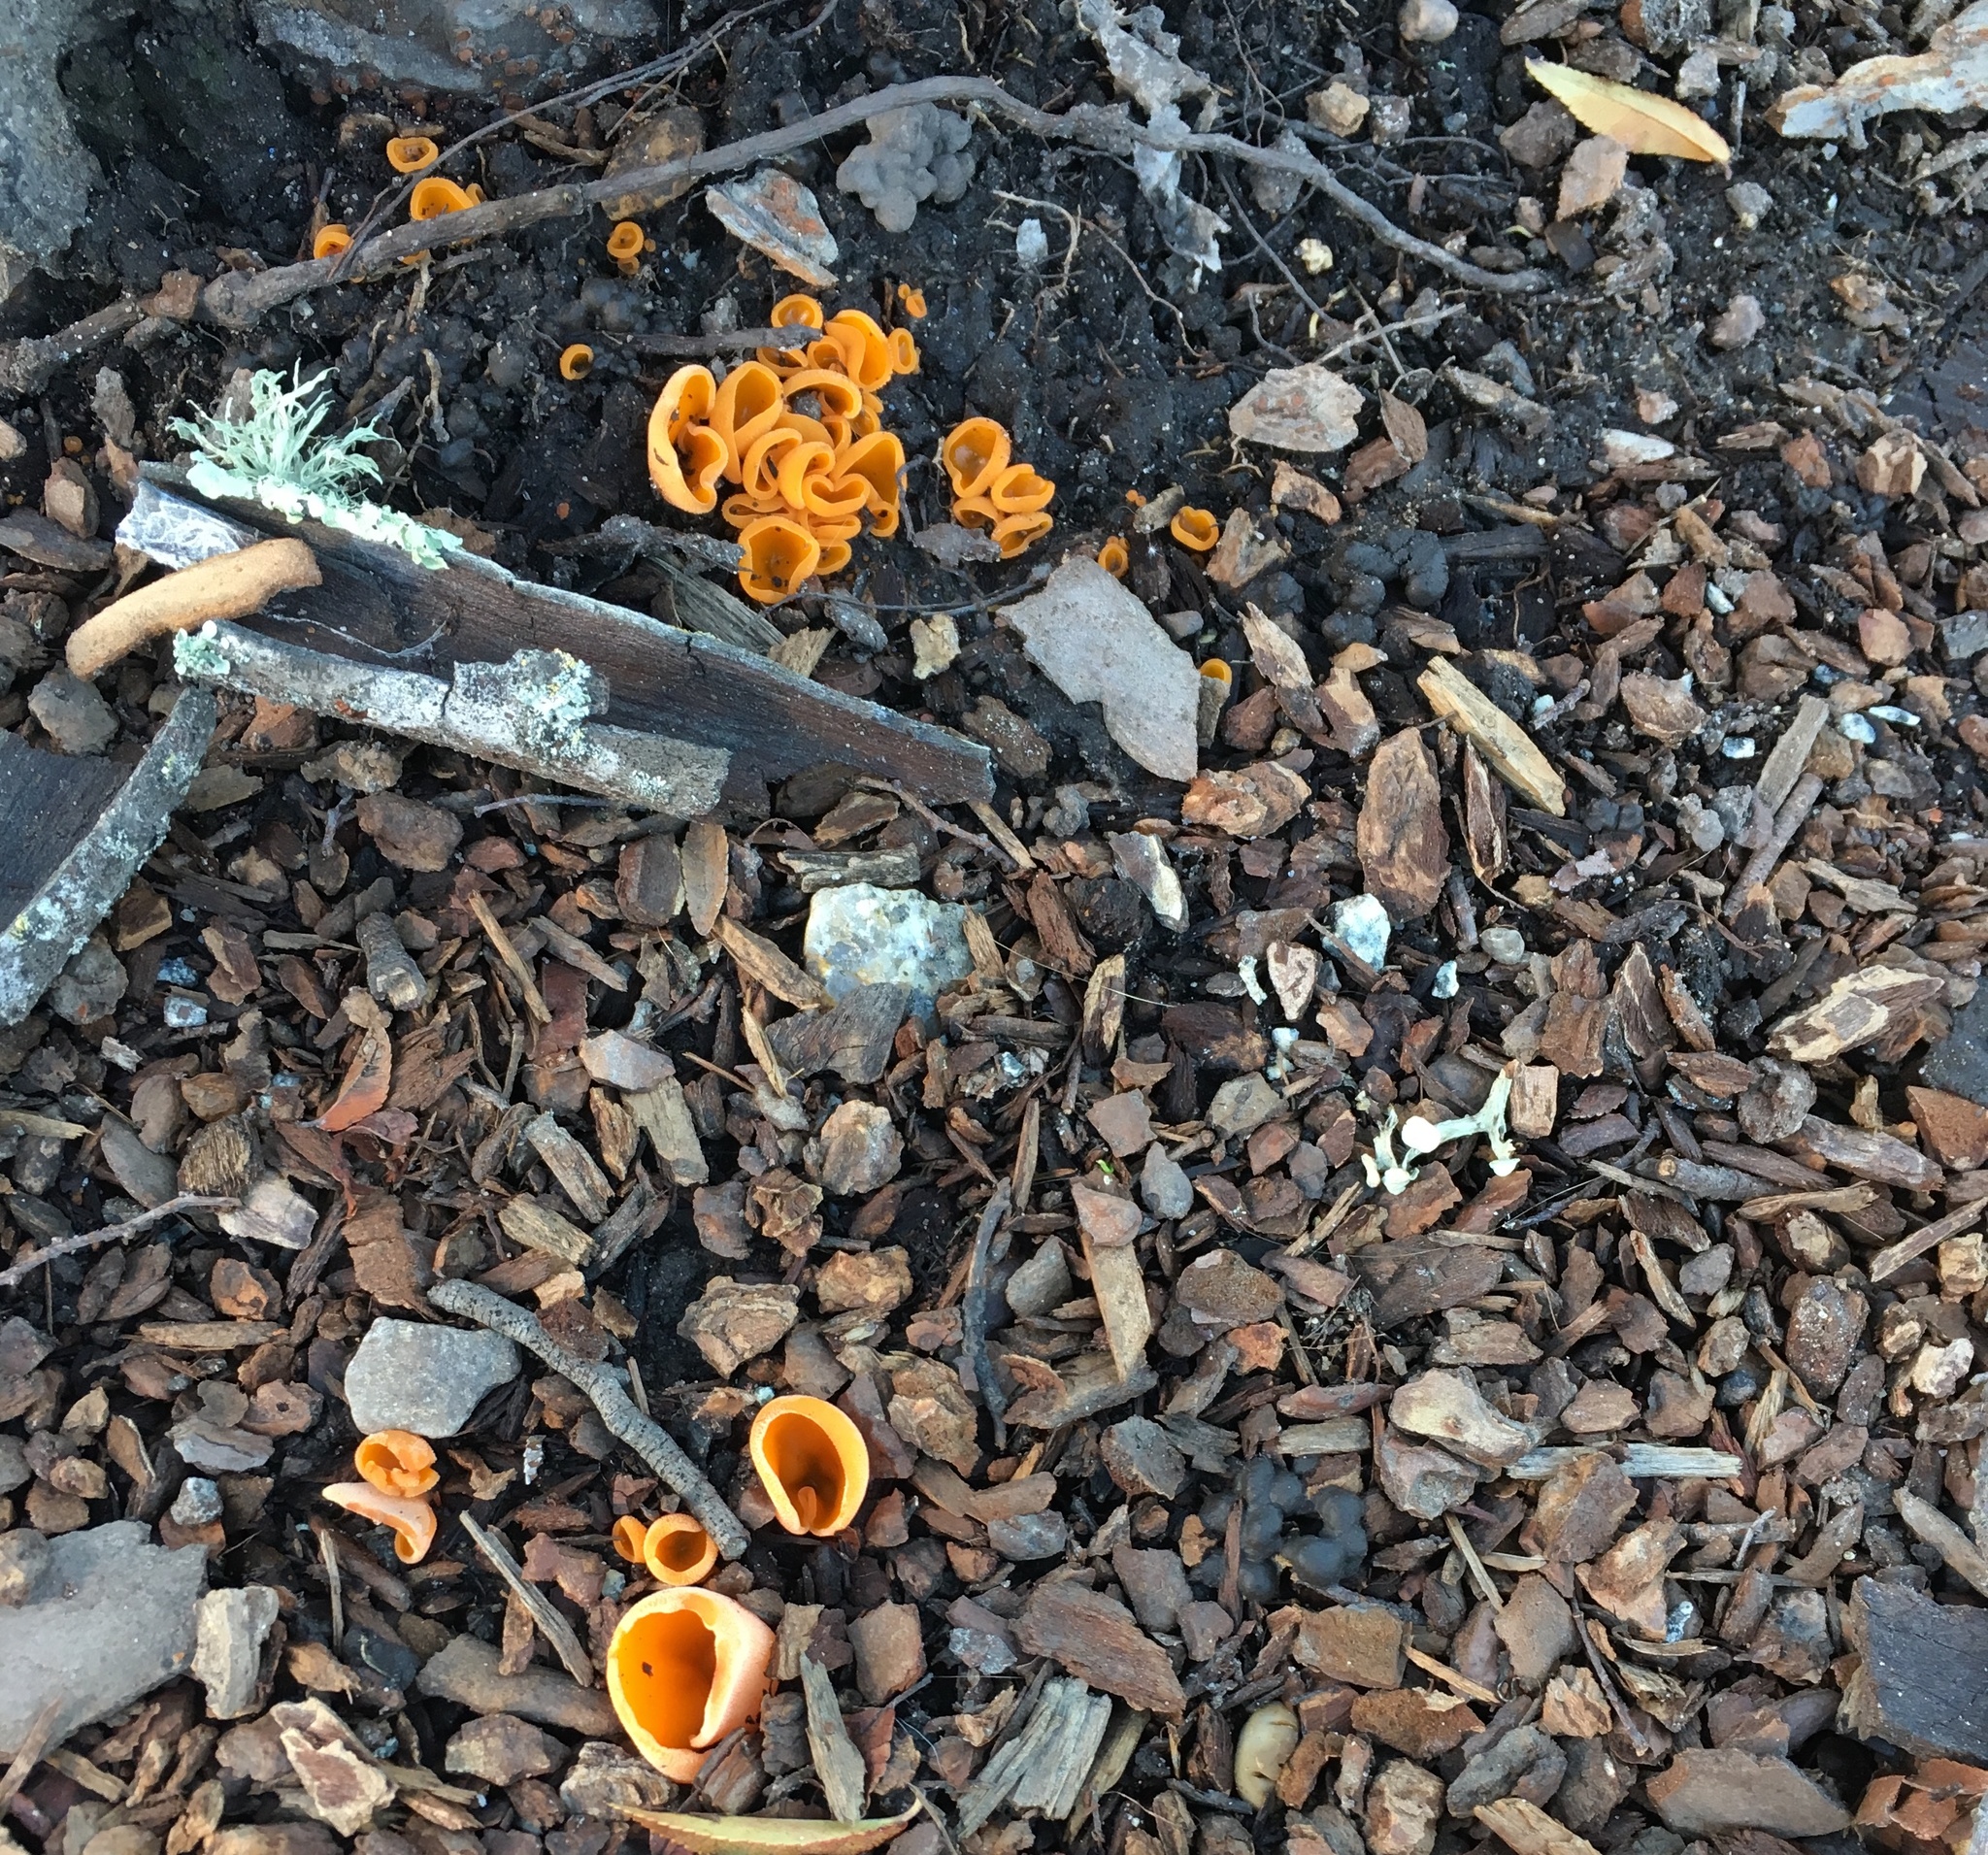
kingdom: Fungi
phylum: Ascomycota
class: Pezizomycetes
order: Pezizales
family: Pyronemataceae
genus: Aleuria
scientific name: Aleuria aurantia
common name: Orange peel fungus
